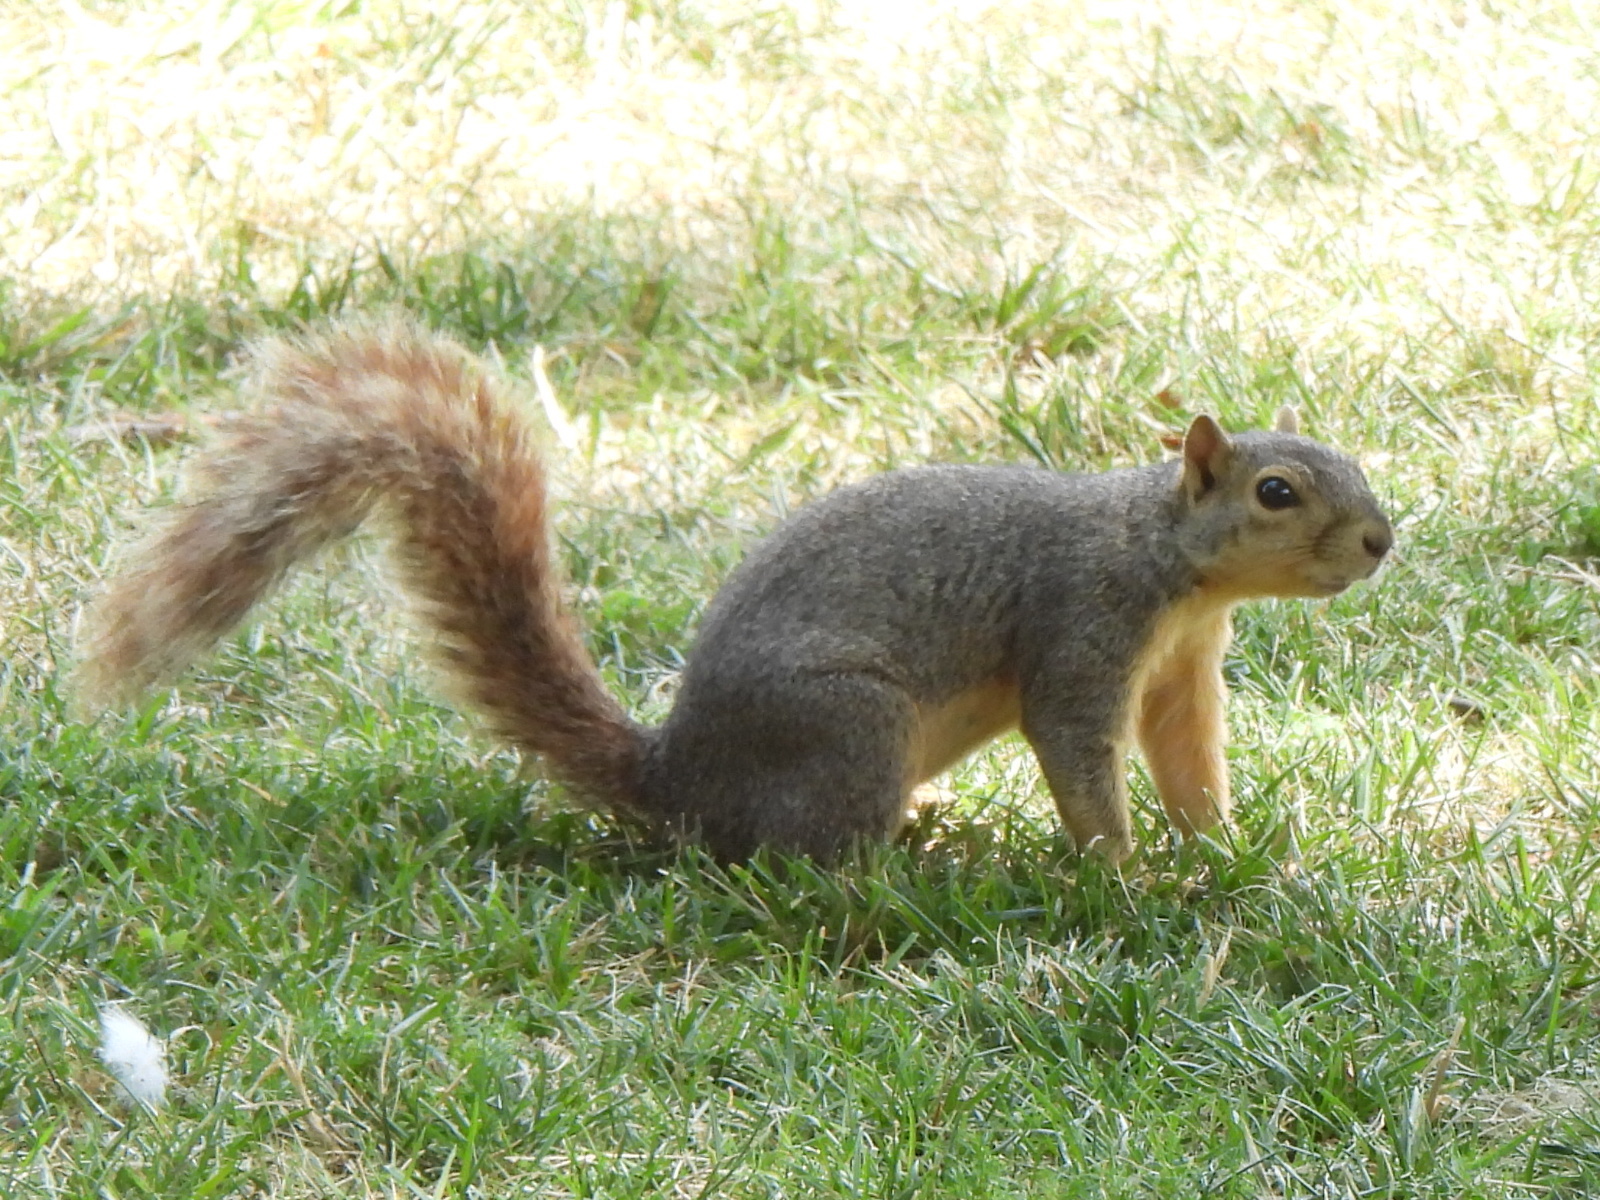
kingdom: Animalia
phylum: Chordata
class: Mammalia
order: Rodentia
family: Sciuridae
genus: Sciurus
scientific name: Sciurus niger
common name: Fox squirrel
